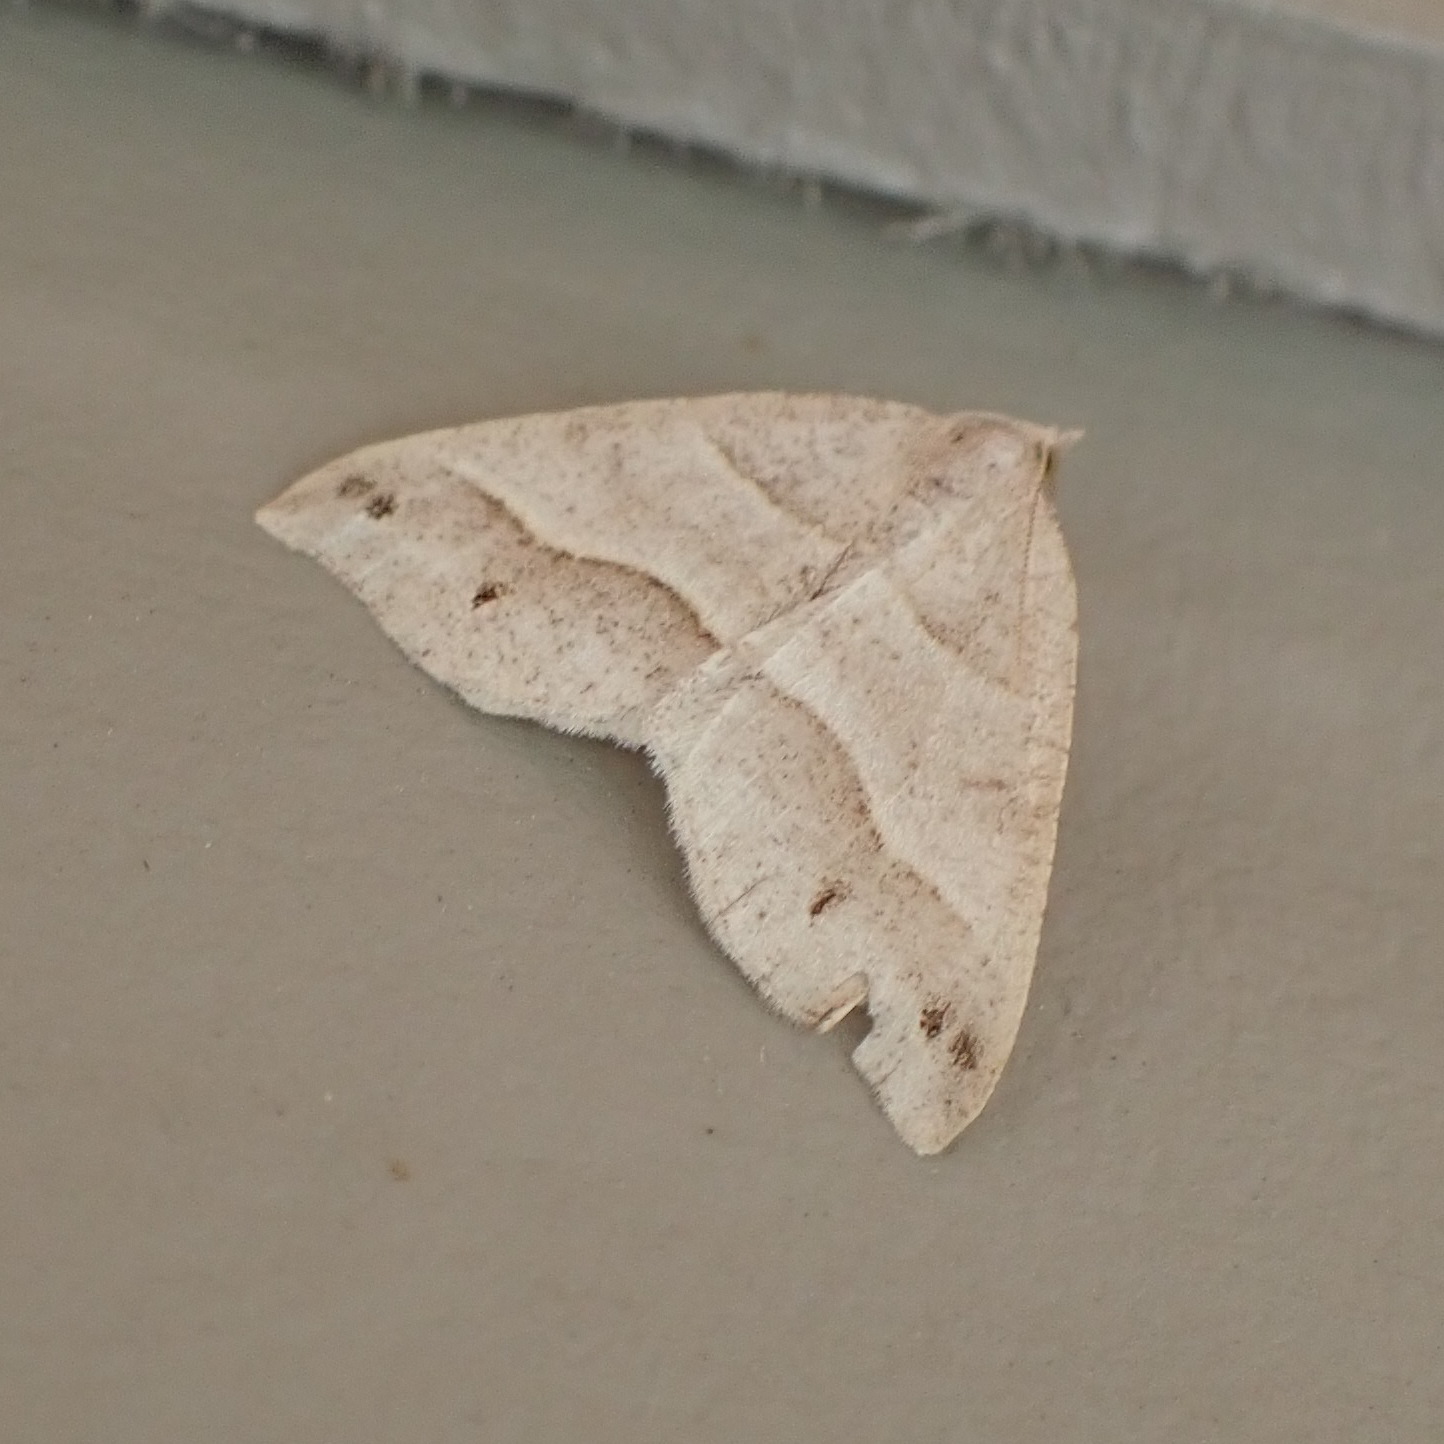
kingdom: Animalia
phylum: Arthropoda
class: Insecta
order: Lepidoptera
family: Geometridae
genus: Macaria
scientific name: Macaria lorquinaria
